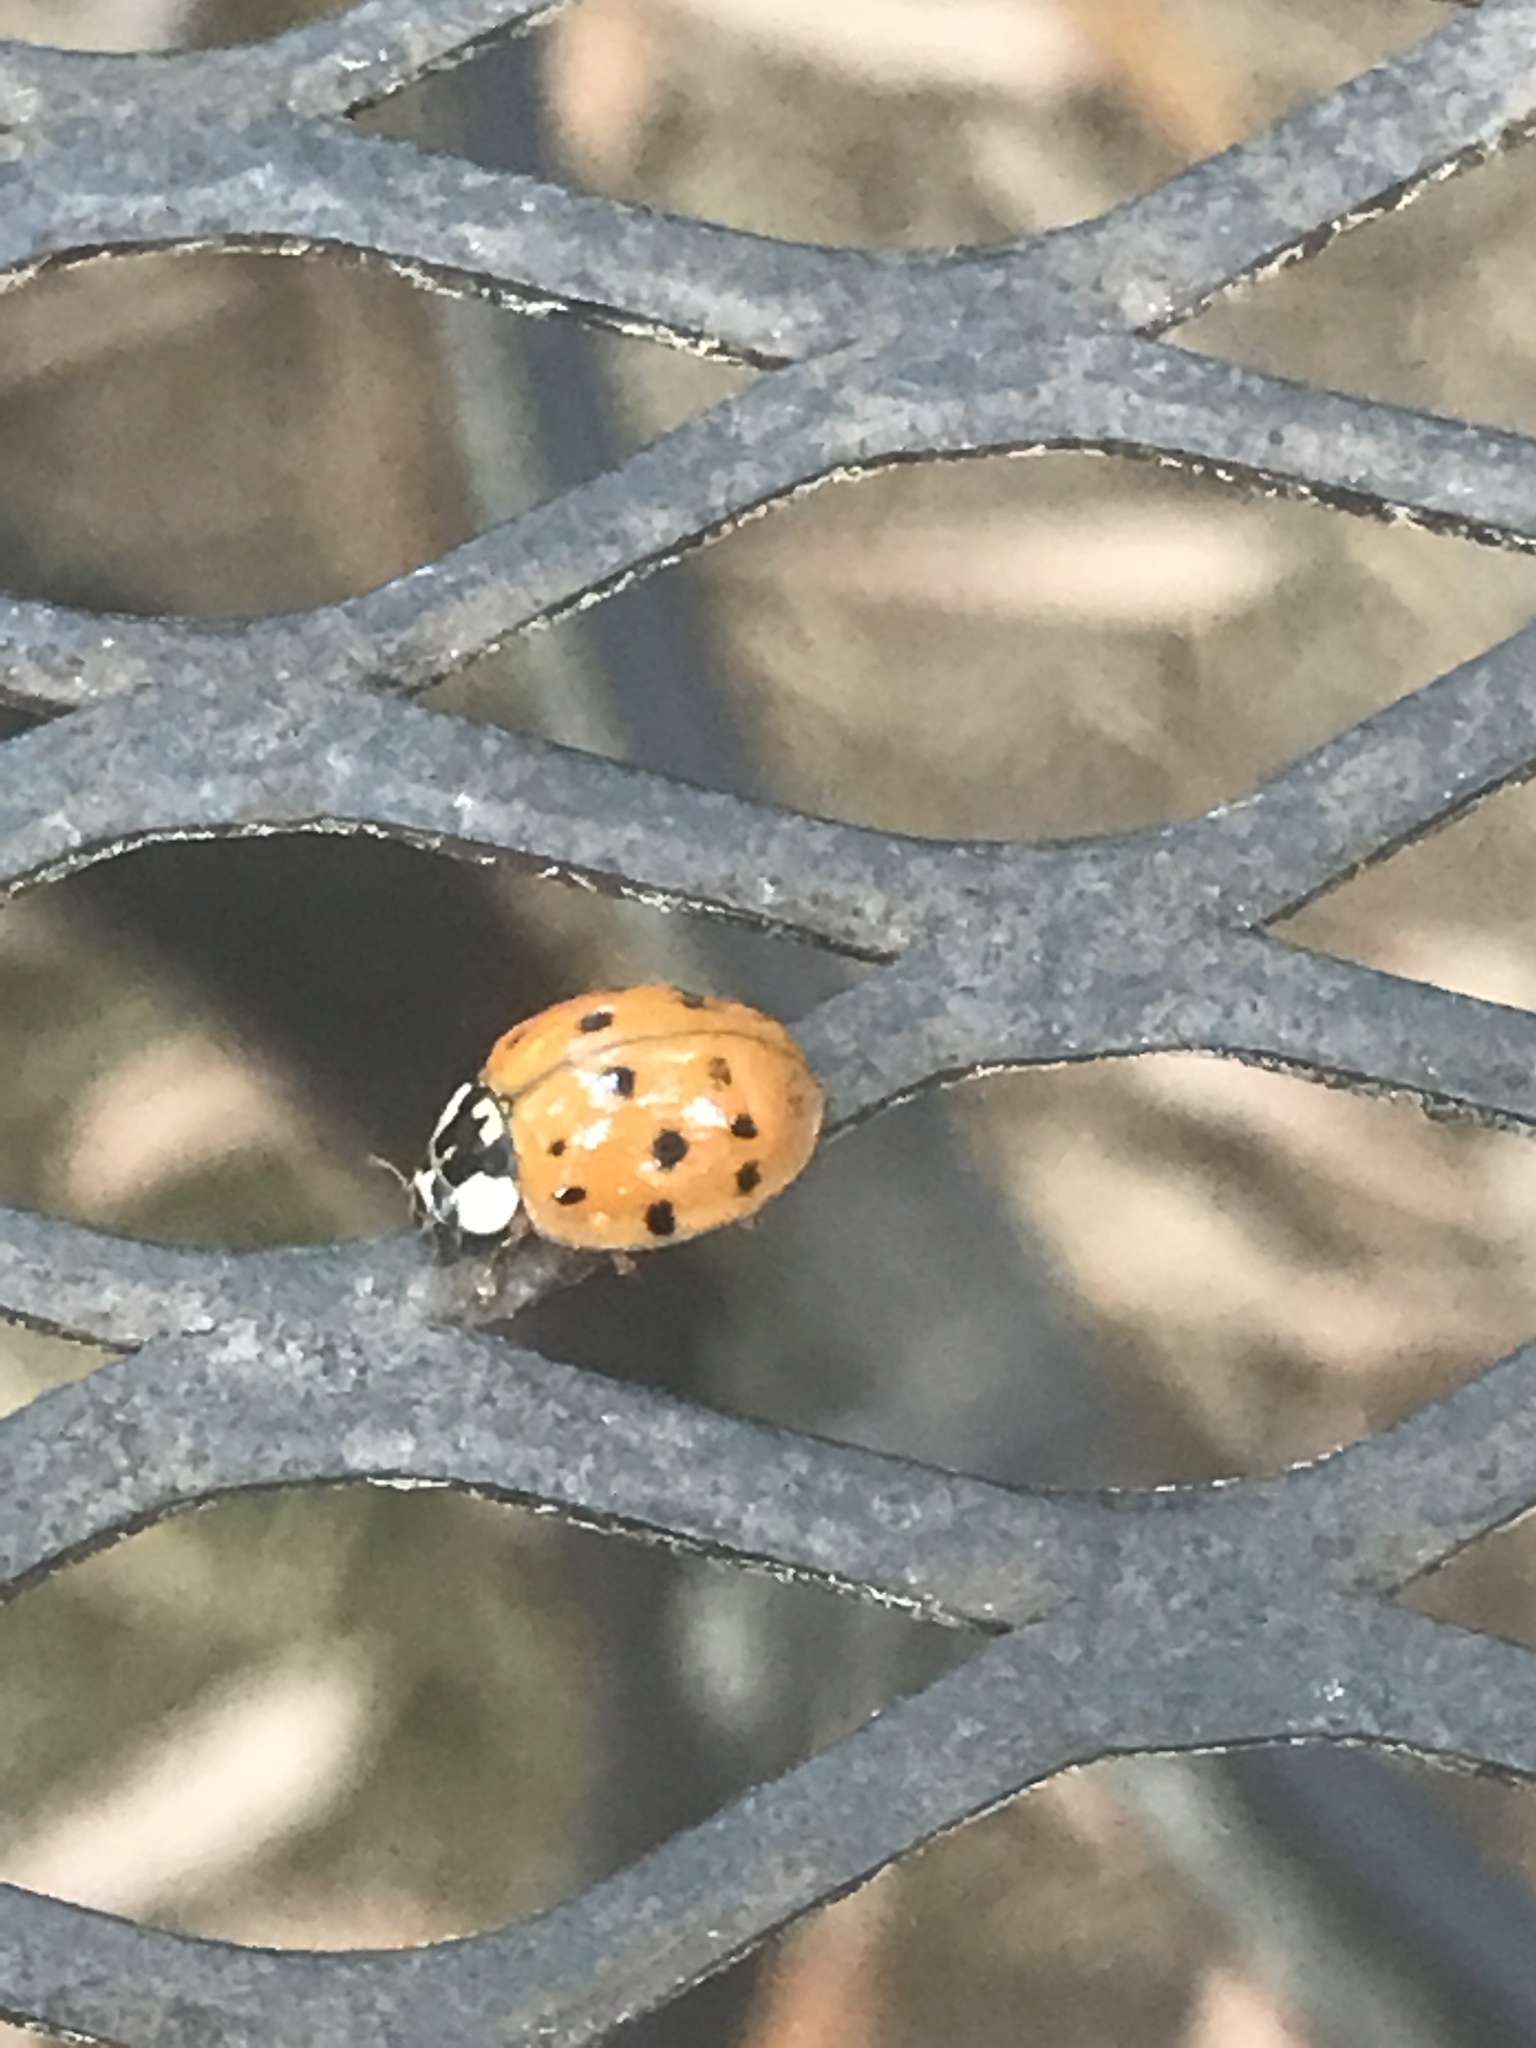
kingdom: Animalia
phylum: Arthropoda
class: Insecta
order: Coleoptera
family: Coccinellidae
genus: Harmonia
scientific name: Harmonia axyridis
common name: Harlequin ladybird
